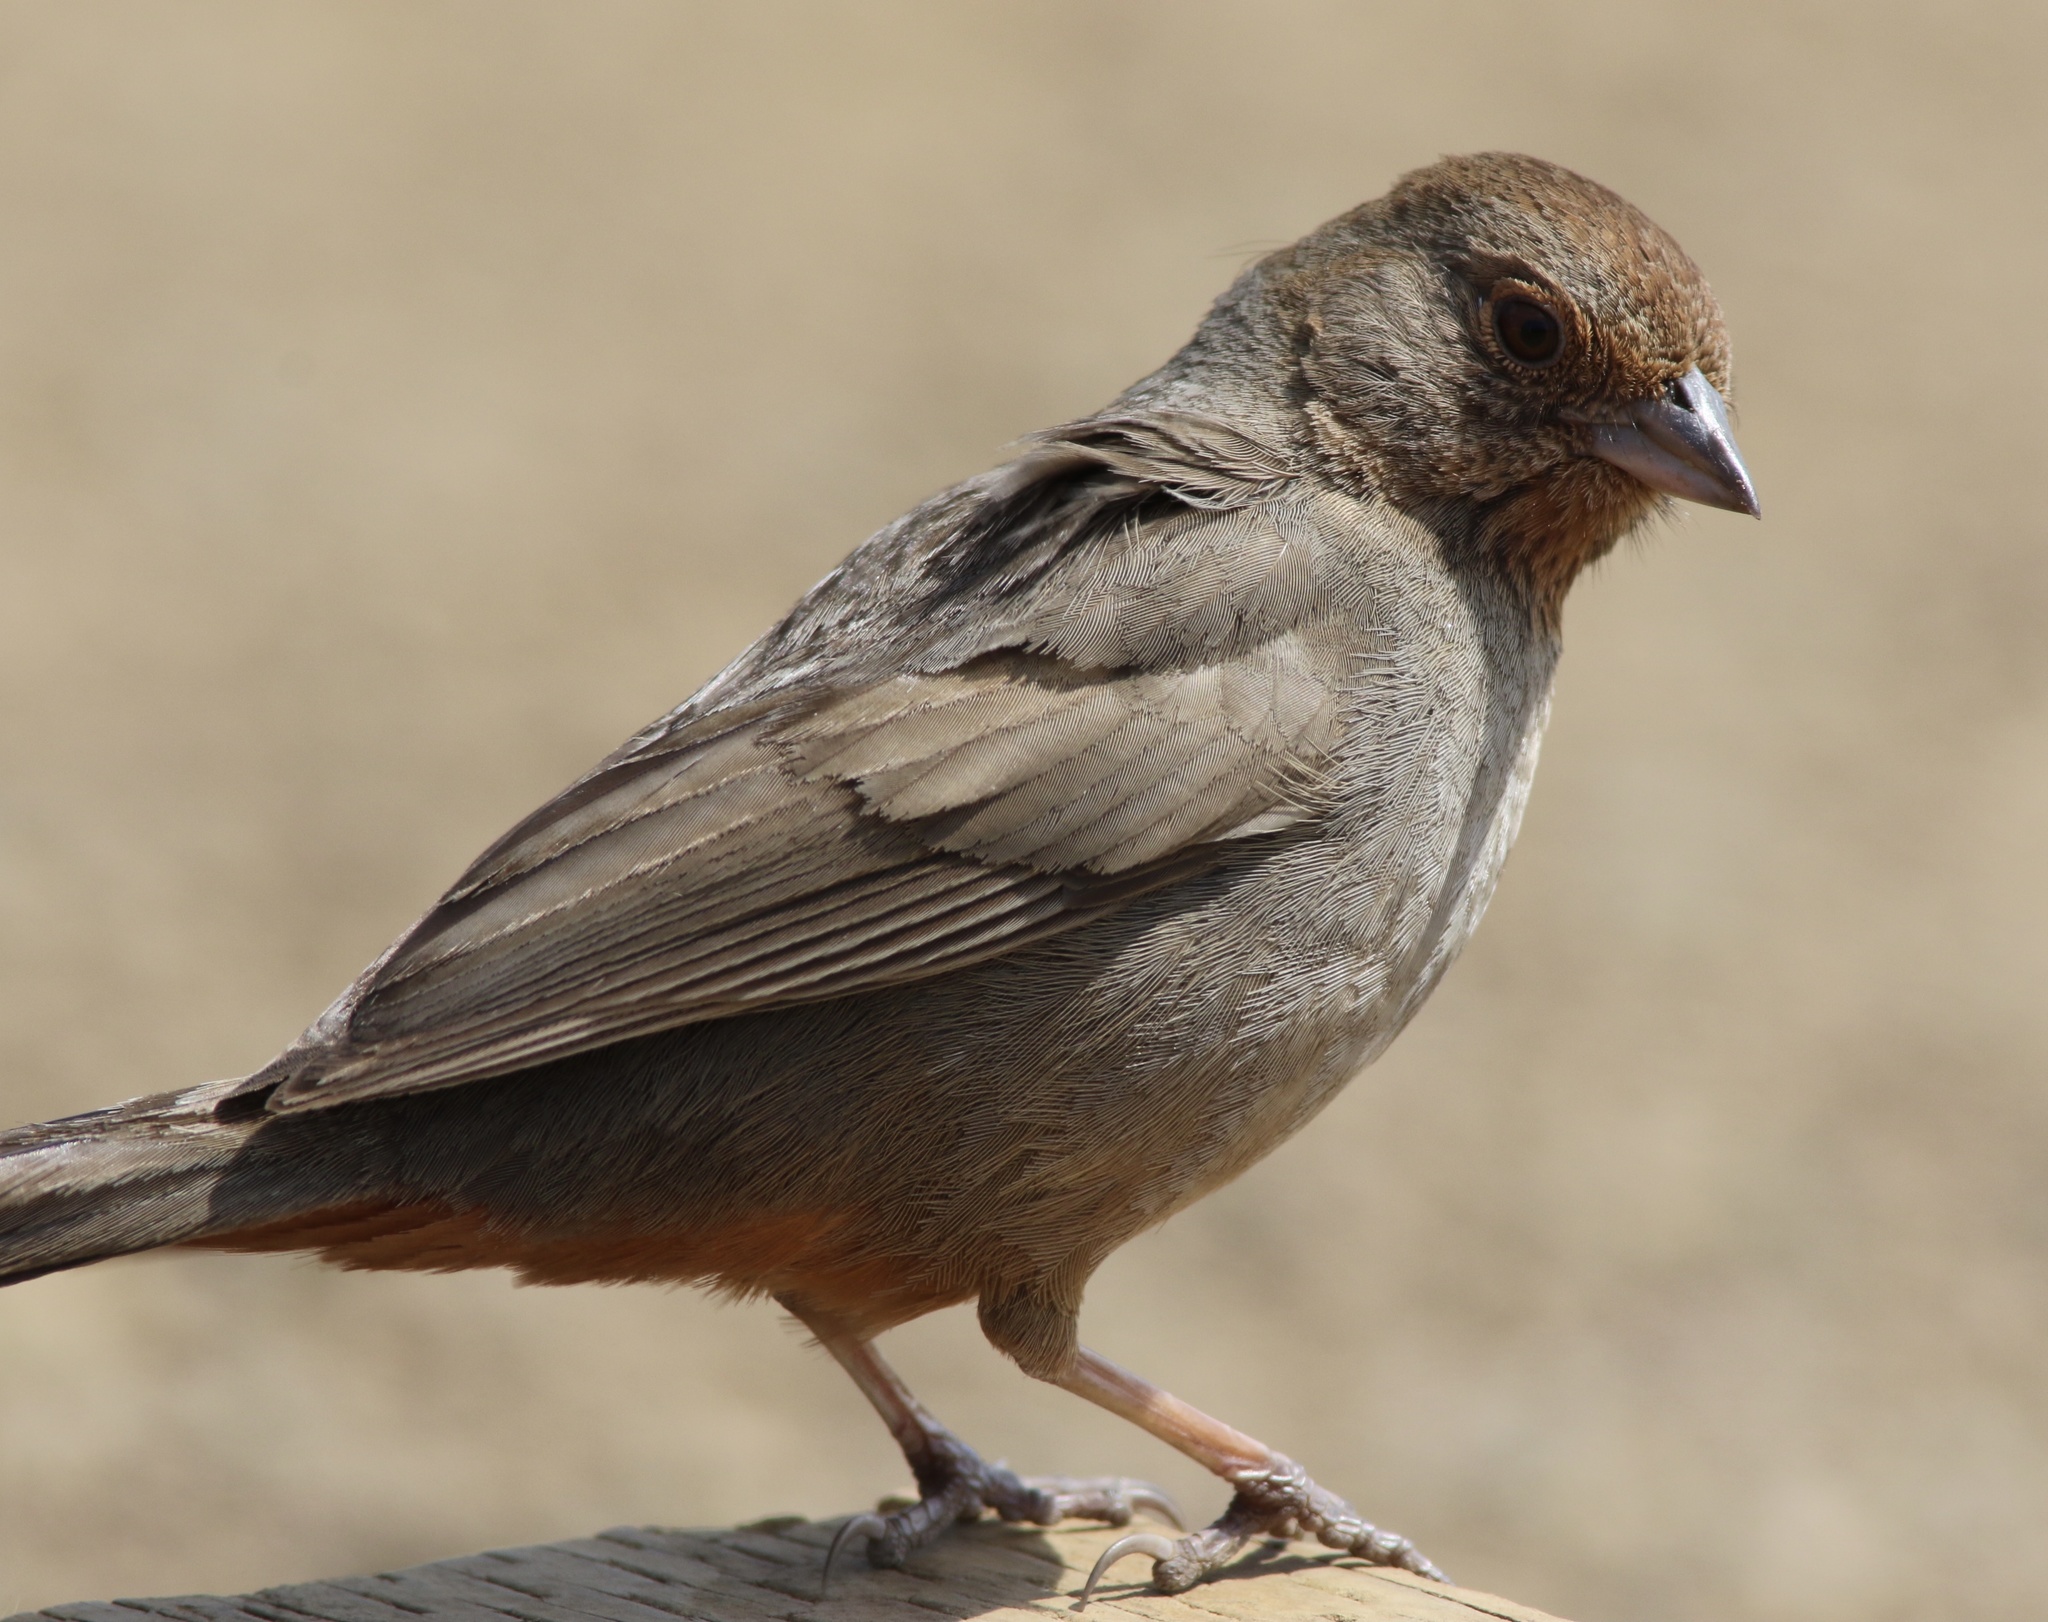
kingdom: Animalia
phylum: Chordata
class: Aves
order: Passeriformes
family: Passerellidae
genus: Melozone
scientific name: Melozone crissalis
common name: California towhee
